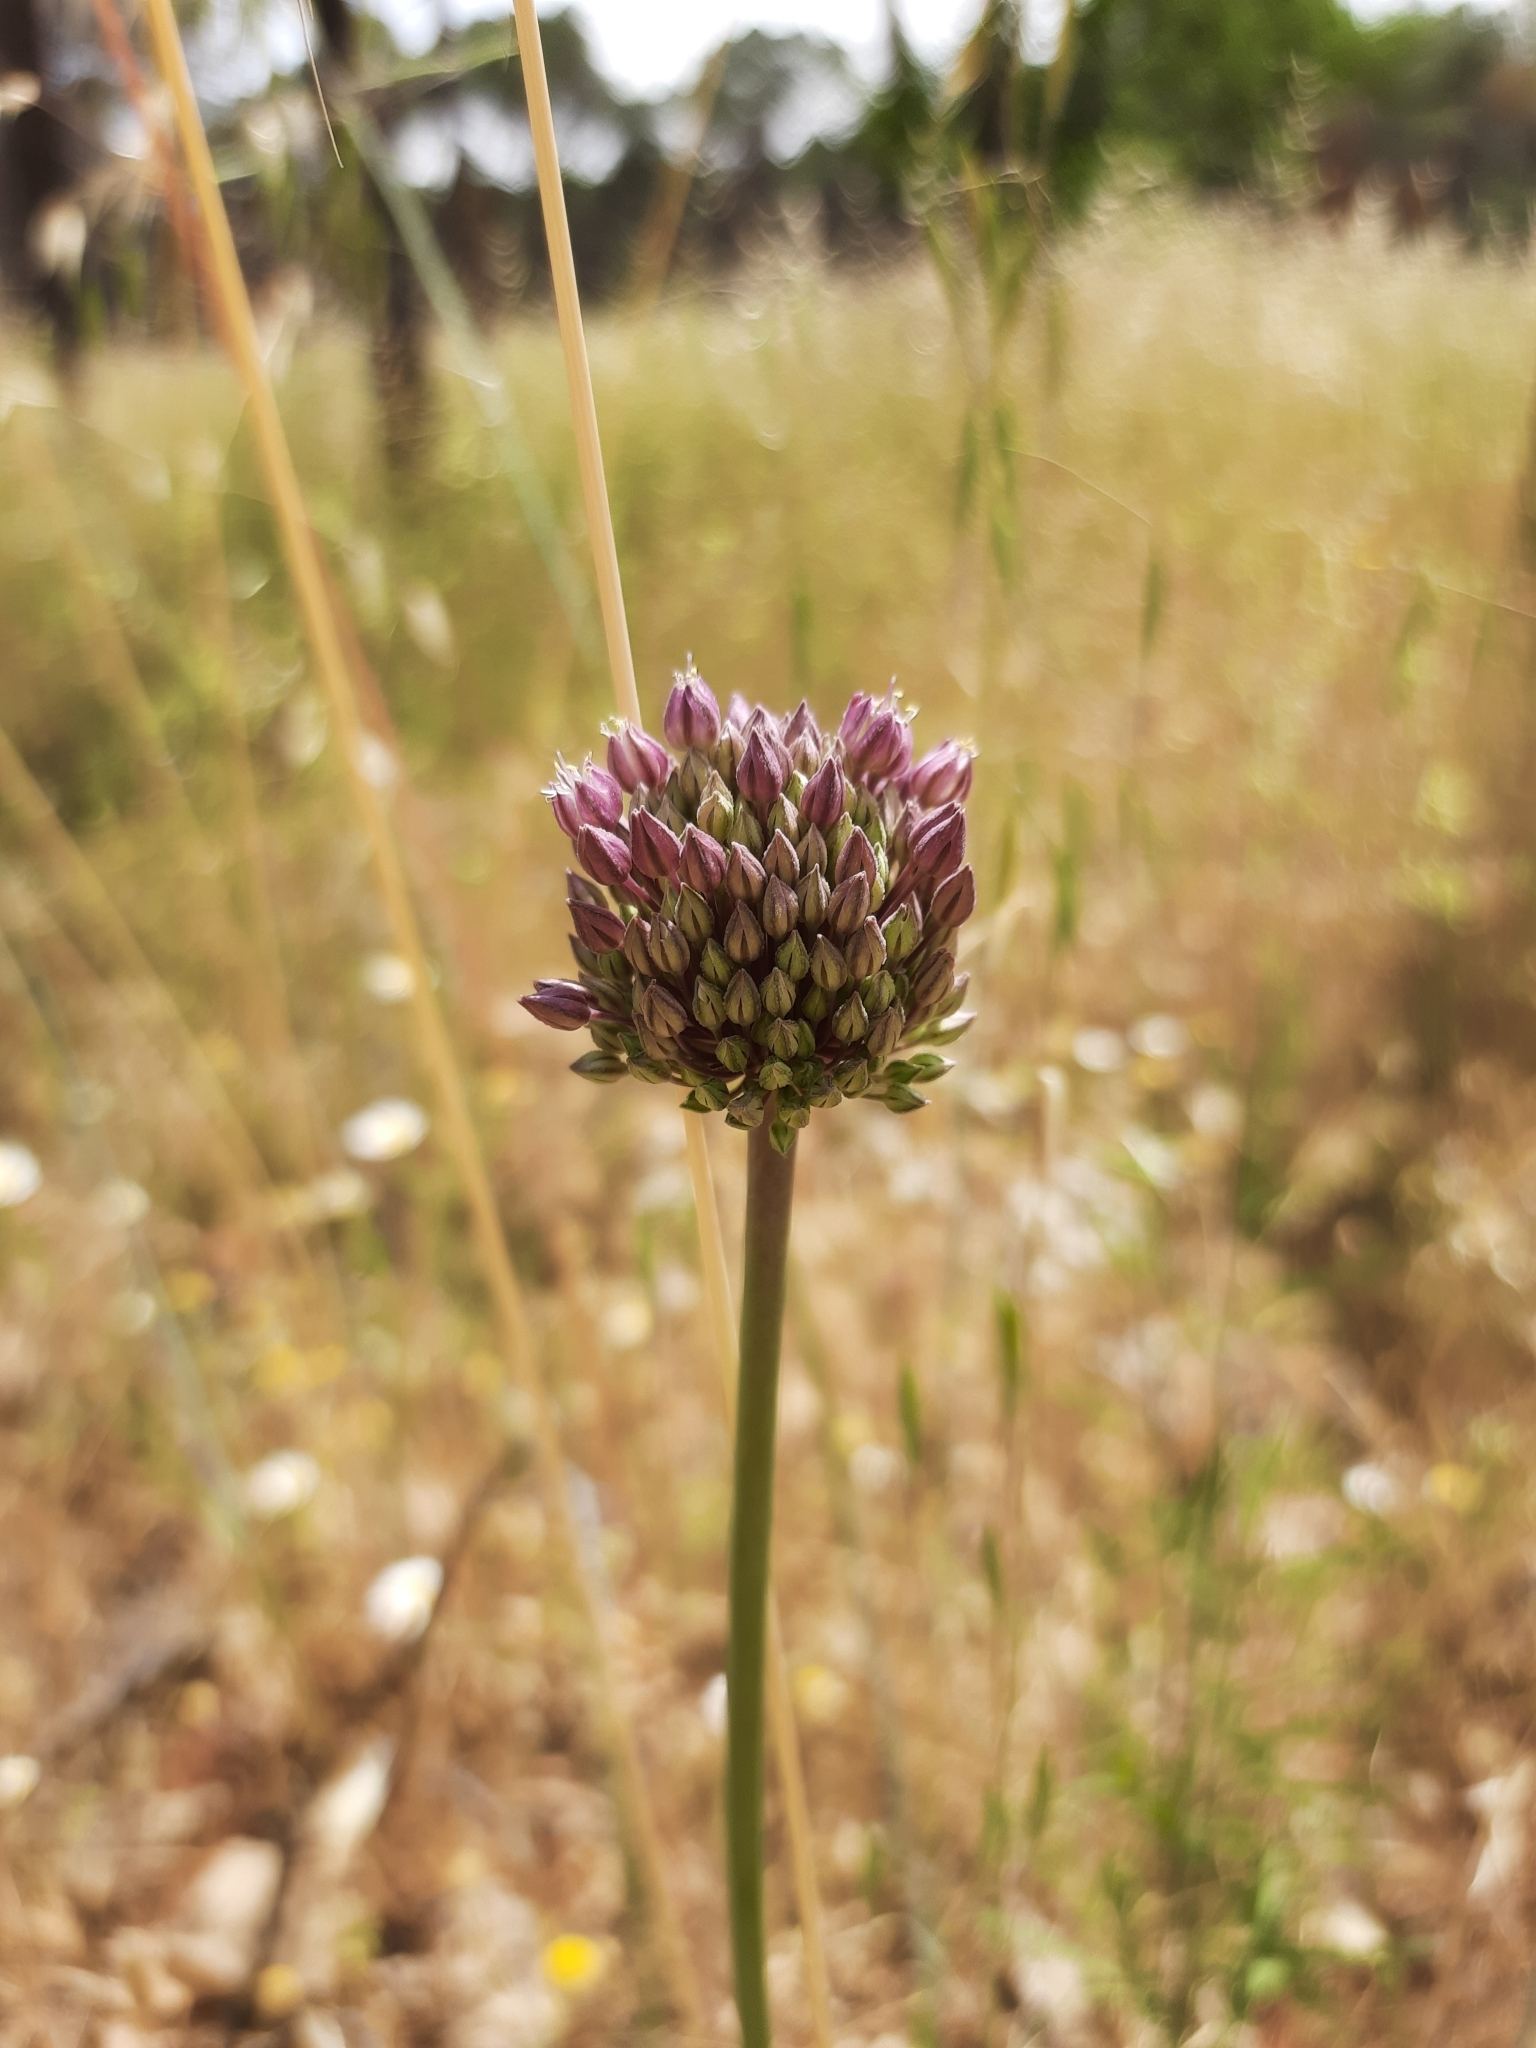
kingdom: Plantae
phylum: Tracheophyta
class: Liliopsida
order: Asparagales
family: Amaryllidaceae
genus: Allium
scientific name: Allium ampeloprasum
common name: Wild leek
